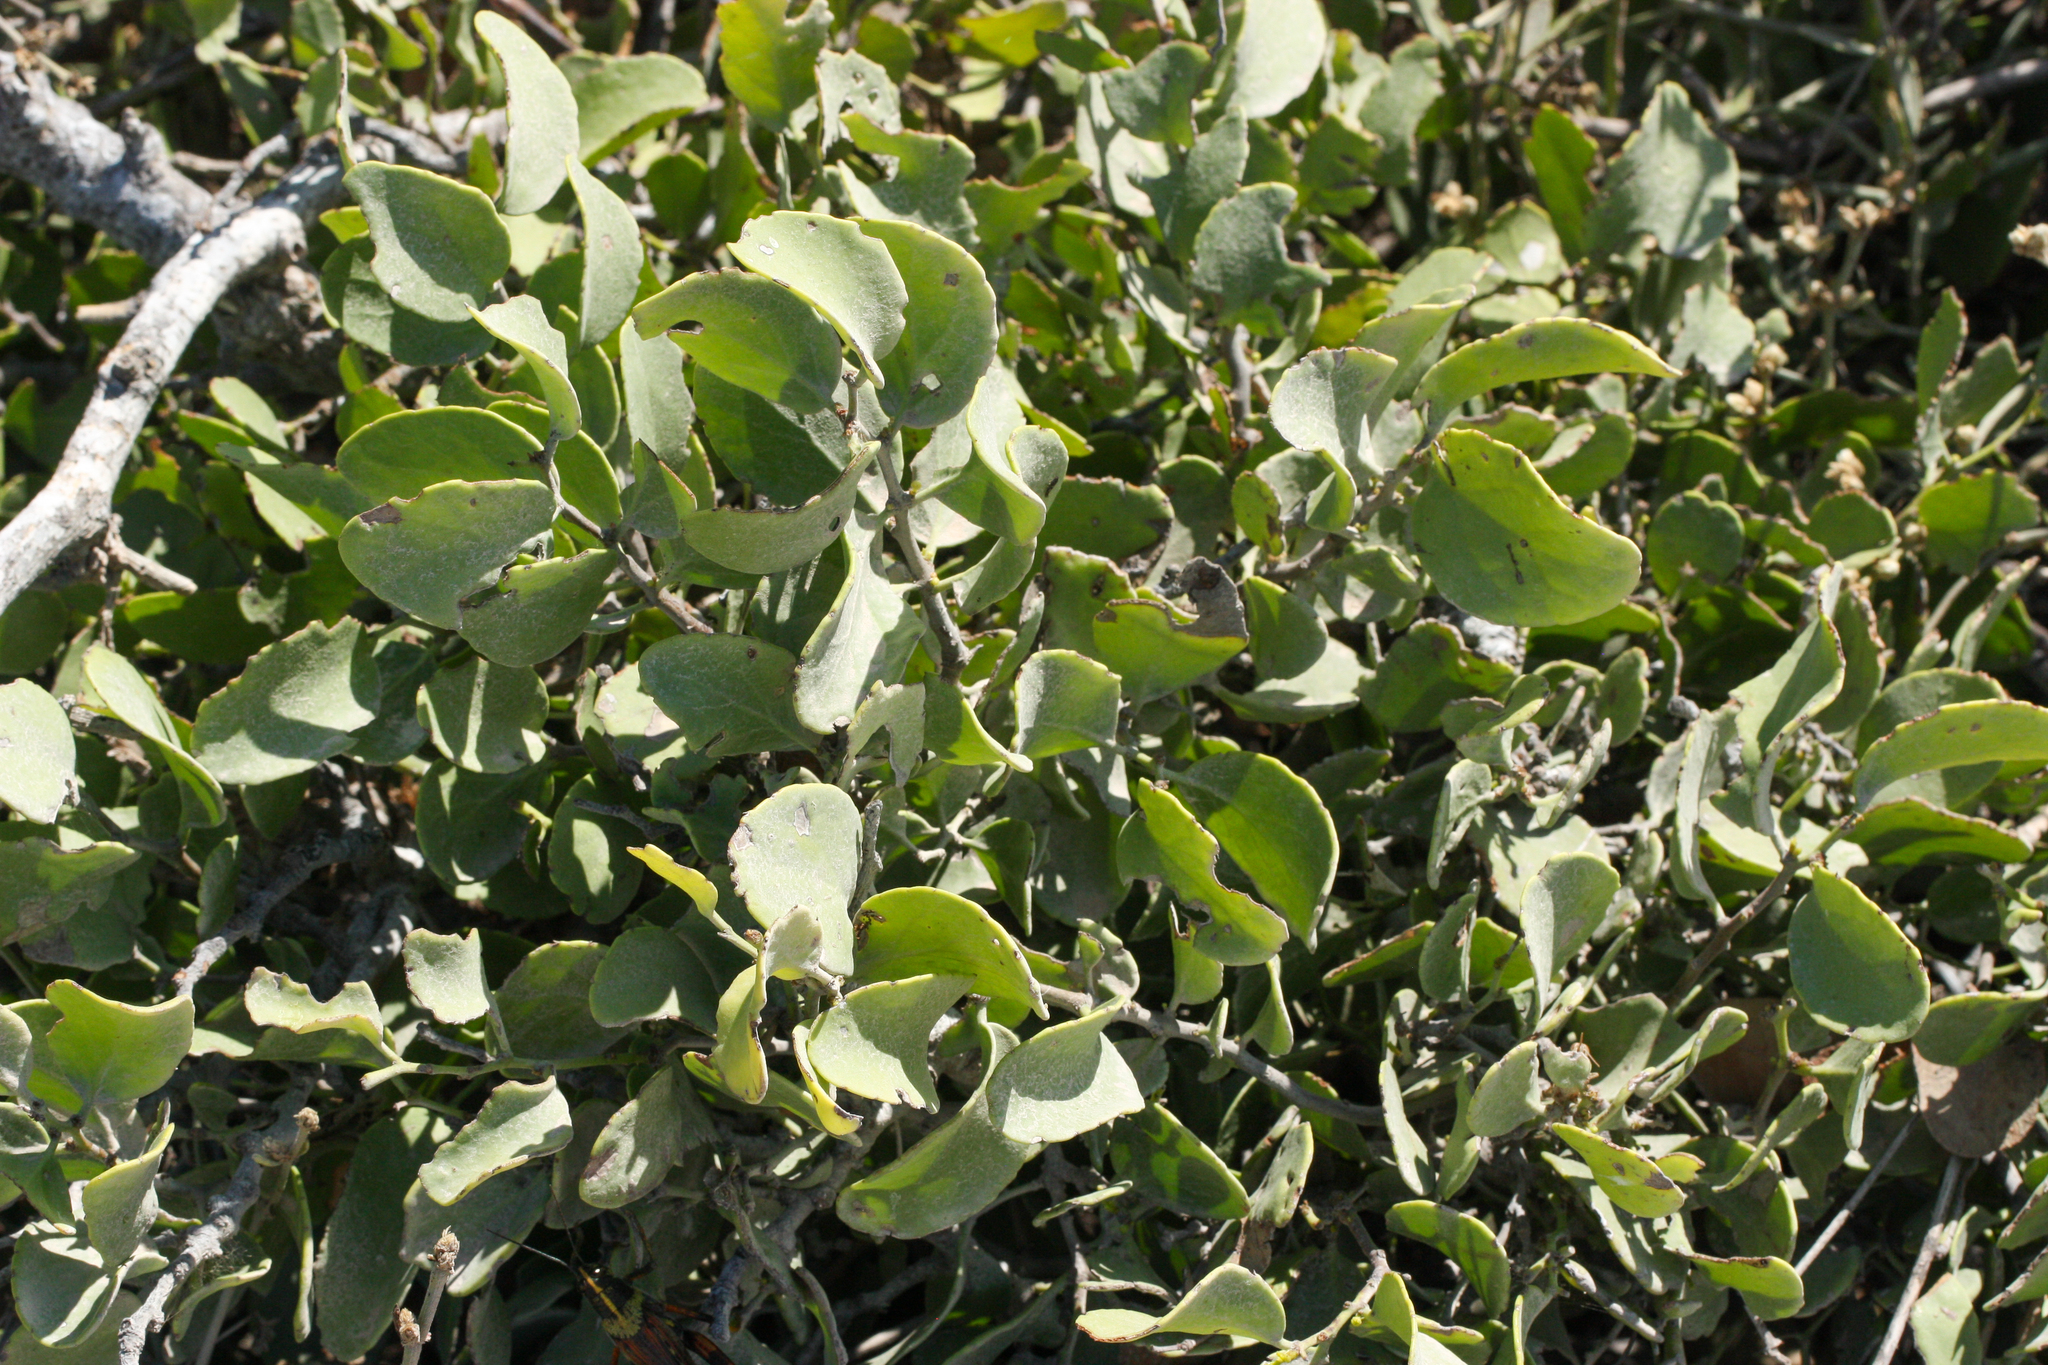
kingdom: Plantae
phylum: Tracheophyta
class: Magnoliopsida
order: Celastrales
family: Celastraceae
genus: Tricerma
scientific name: Tricerma octogonum
